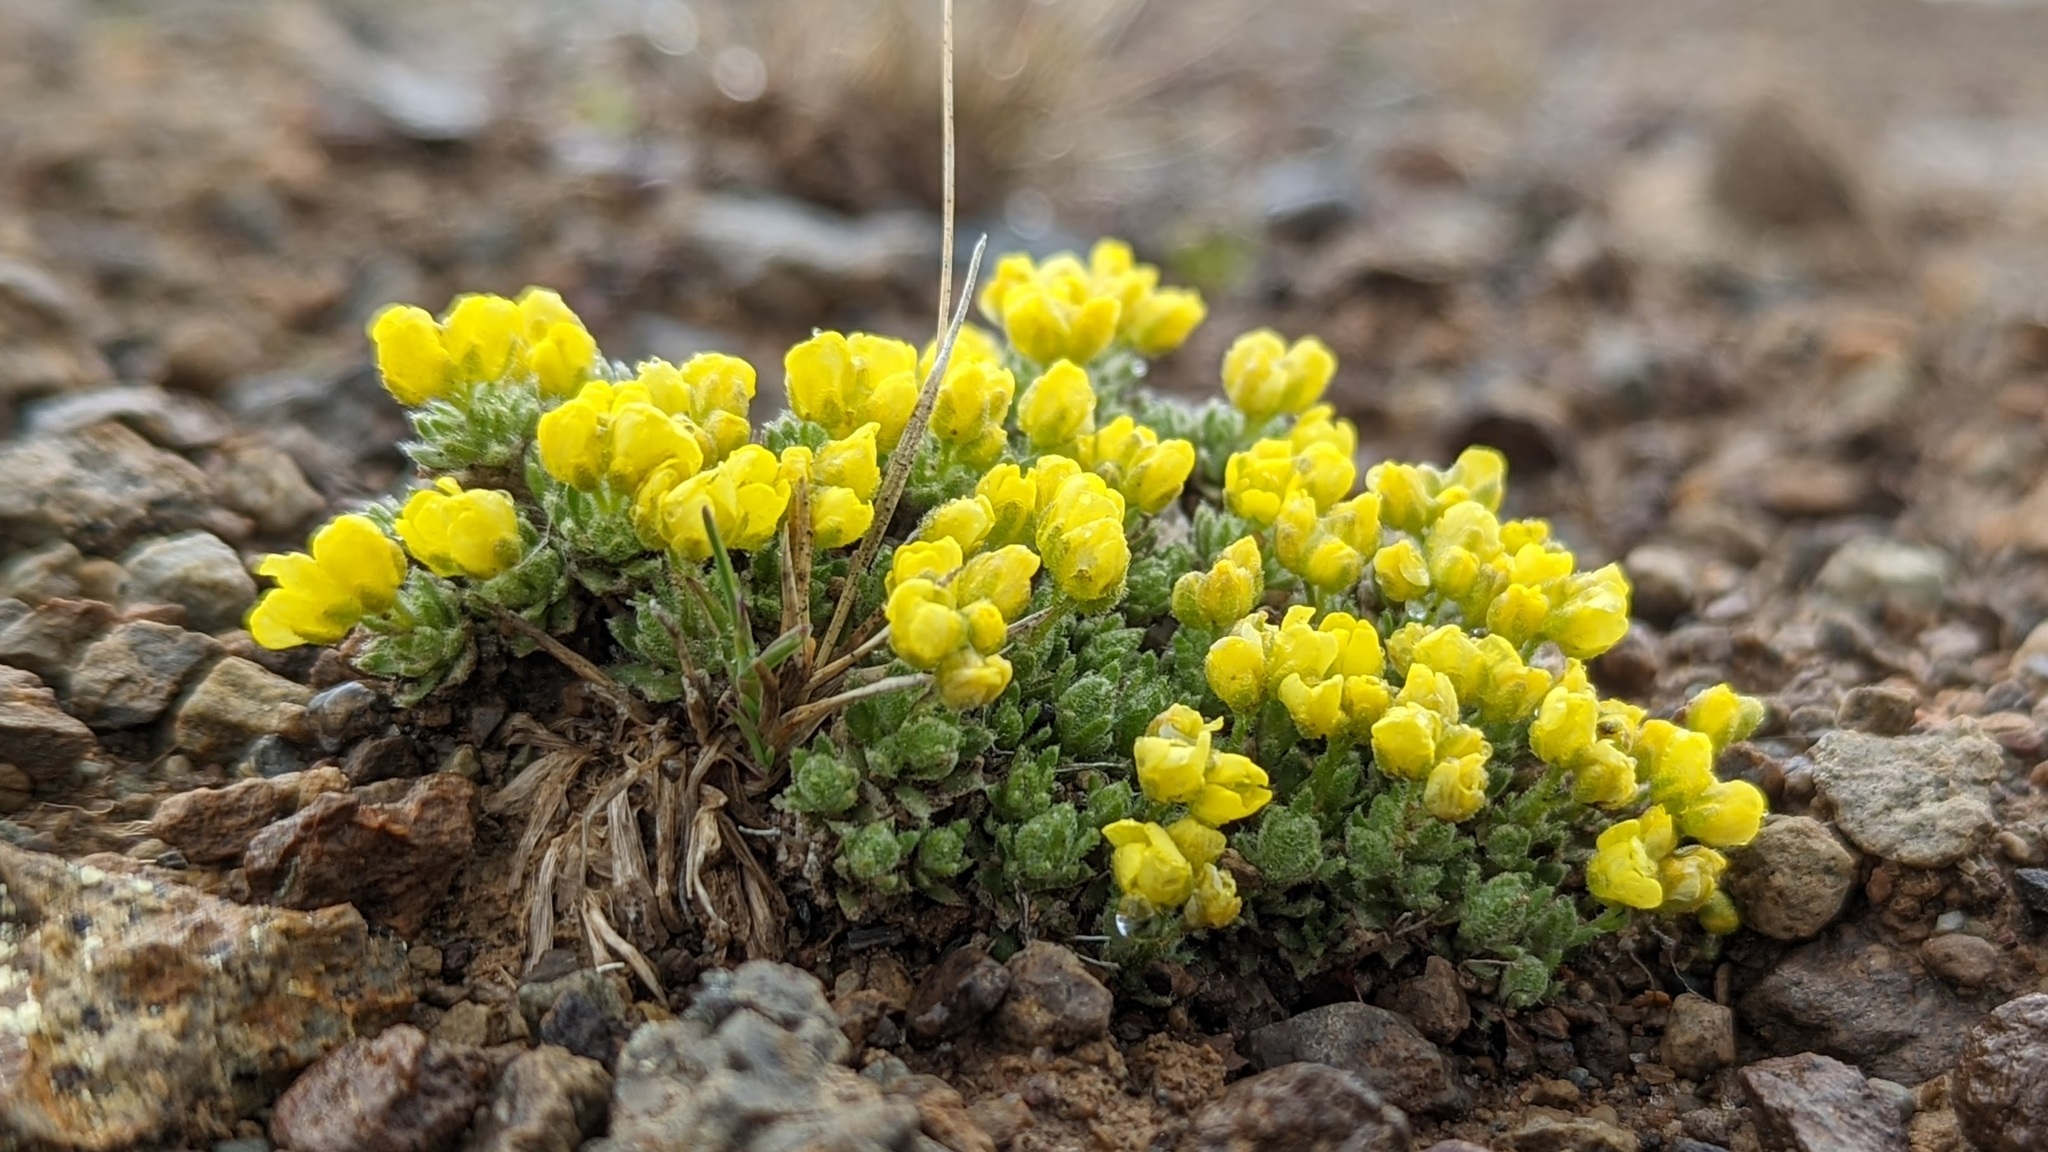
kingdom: Plantae
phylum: Tracheophyta
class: Magnoliopsida
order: Brassicales
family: Brassicaceae
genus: Draba
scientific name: Draba oligosperma
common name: Few-seed draba
